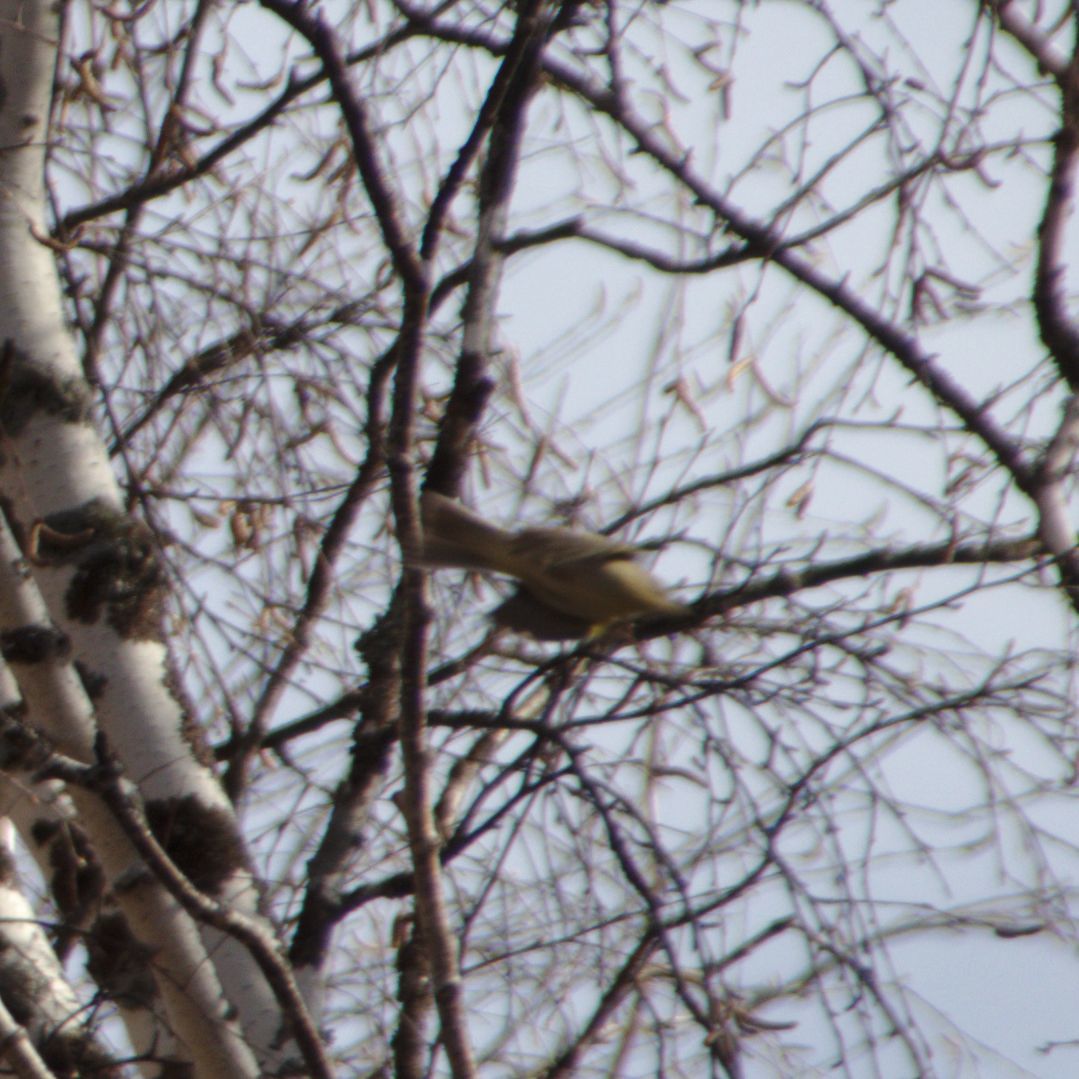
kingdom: Animalia
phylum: Chordata
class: Aves
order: Passeriformes
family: Phylloscopidae
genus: Phylloscopus
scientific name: Phylloscopus
